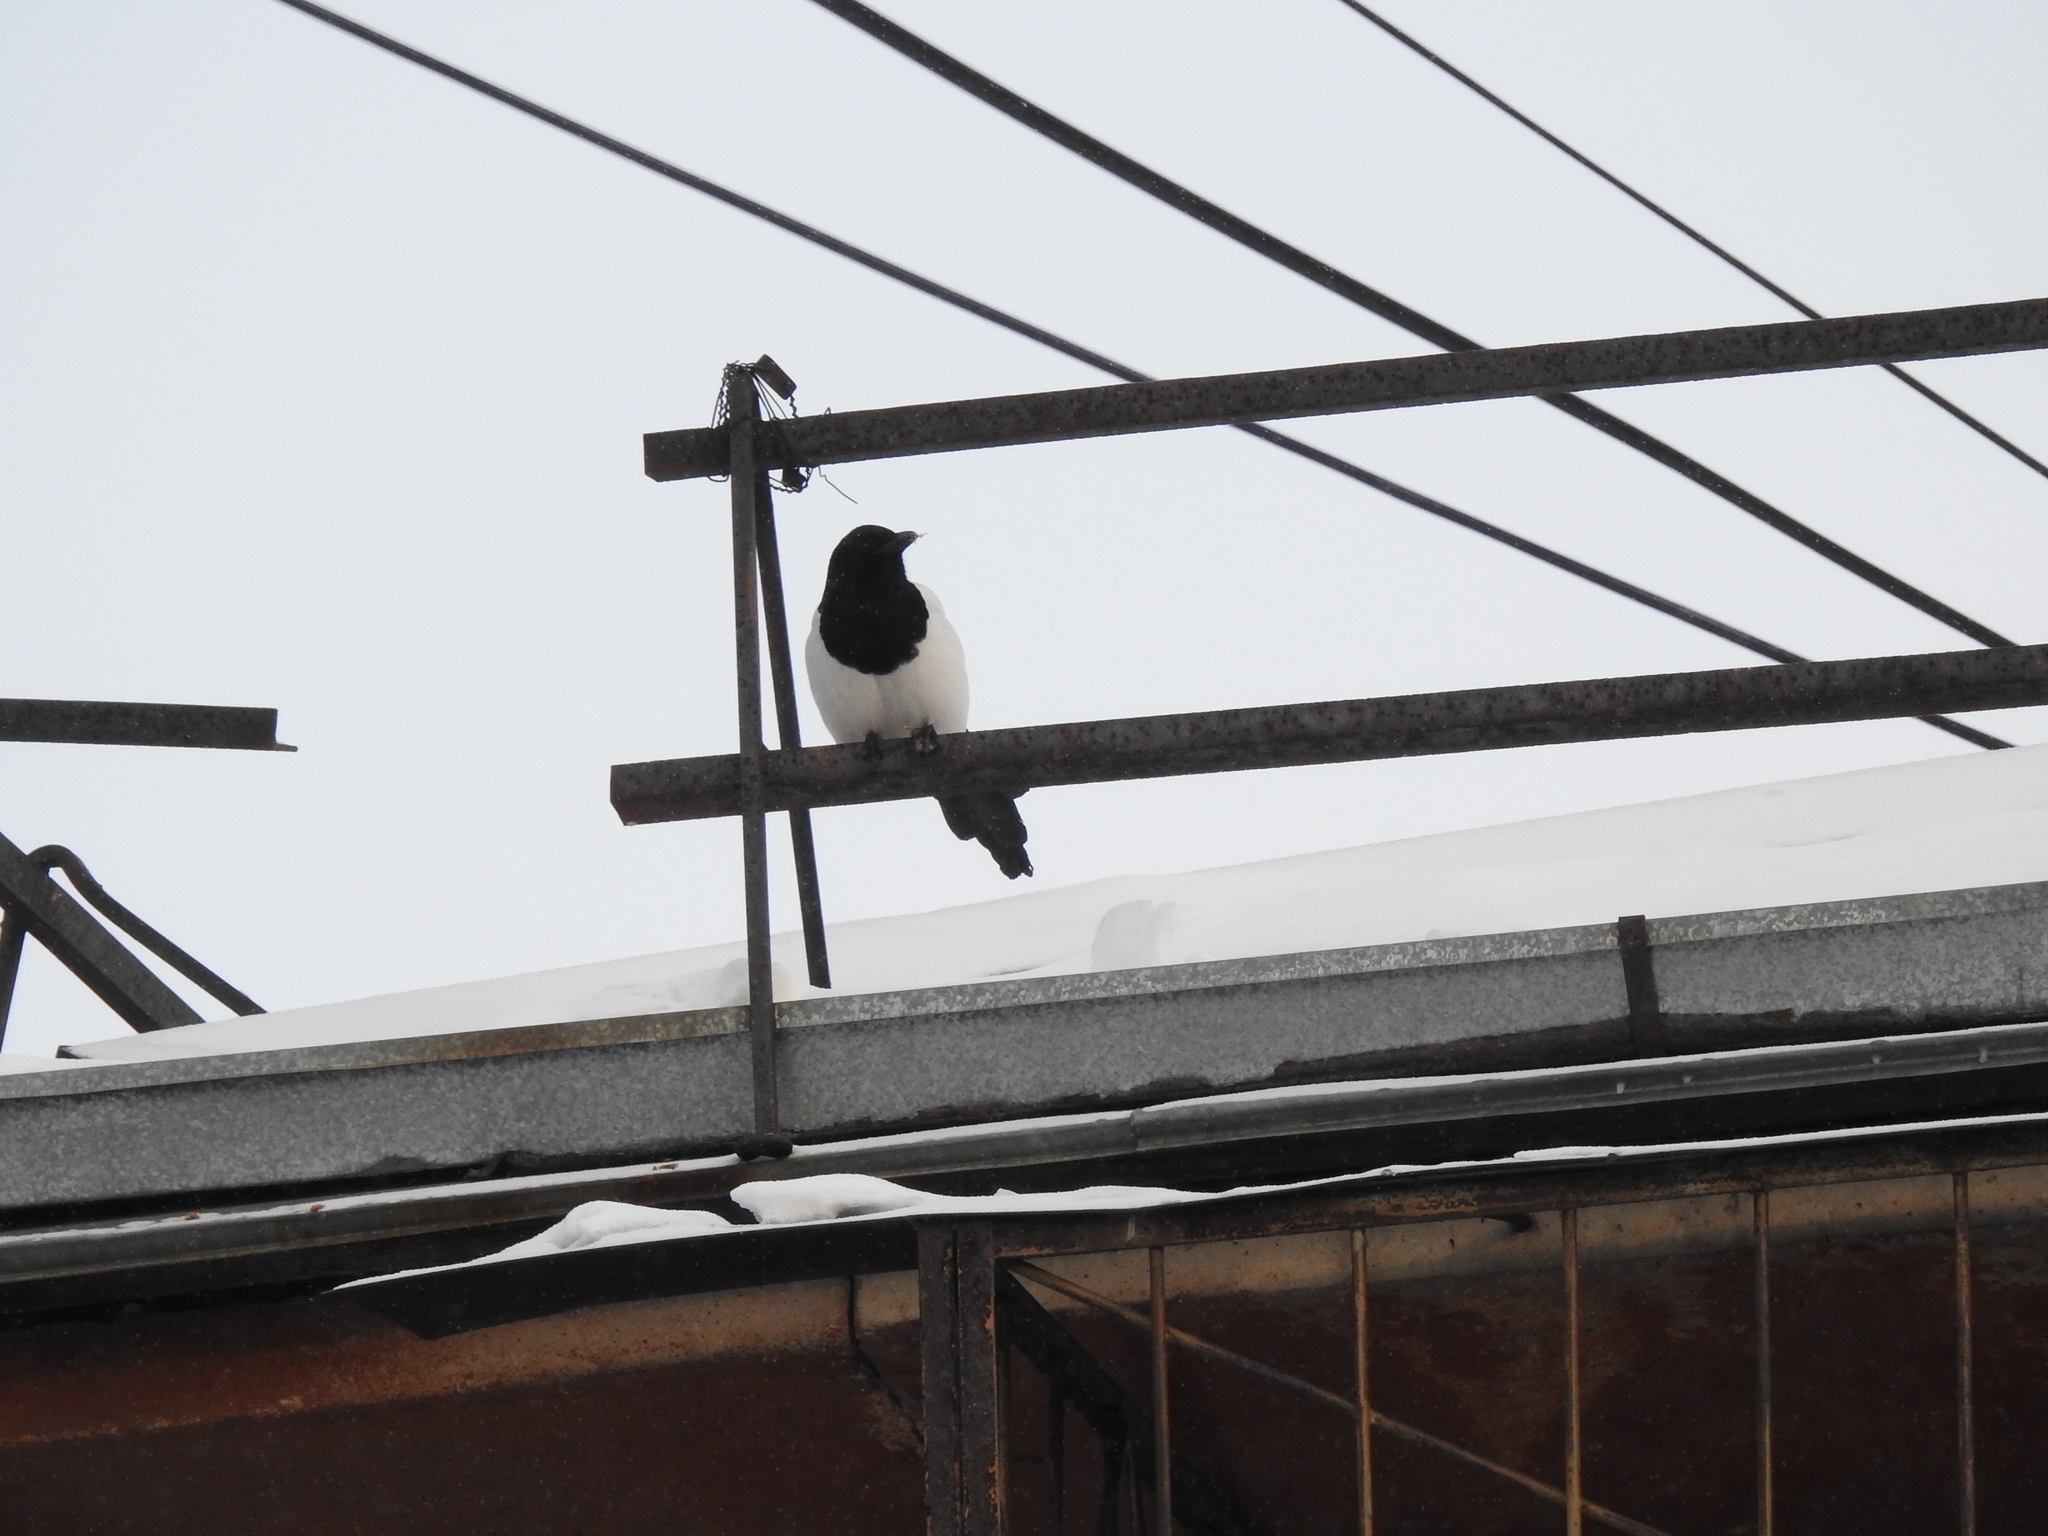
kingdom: Animalia
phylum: Chordata
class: Aves
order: Passeriformes
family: Corvidae
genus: Pica
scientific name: Pica pica
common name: Eurasian magpie
